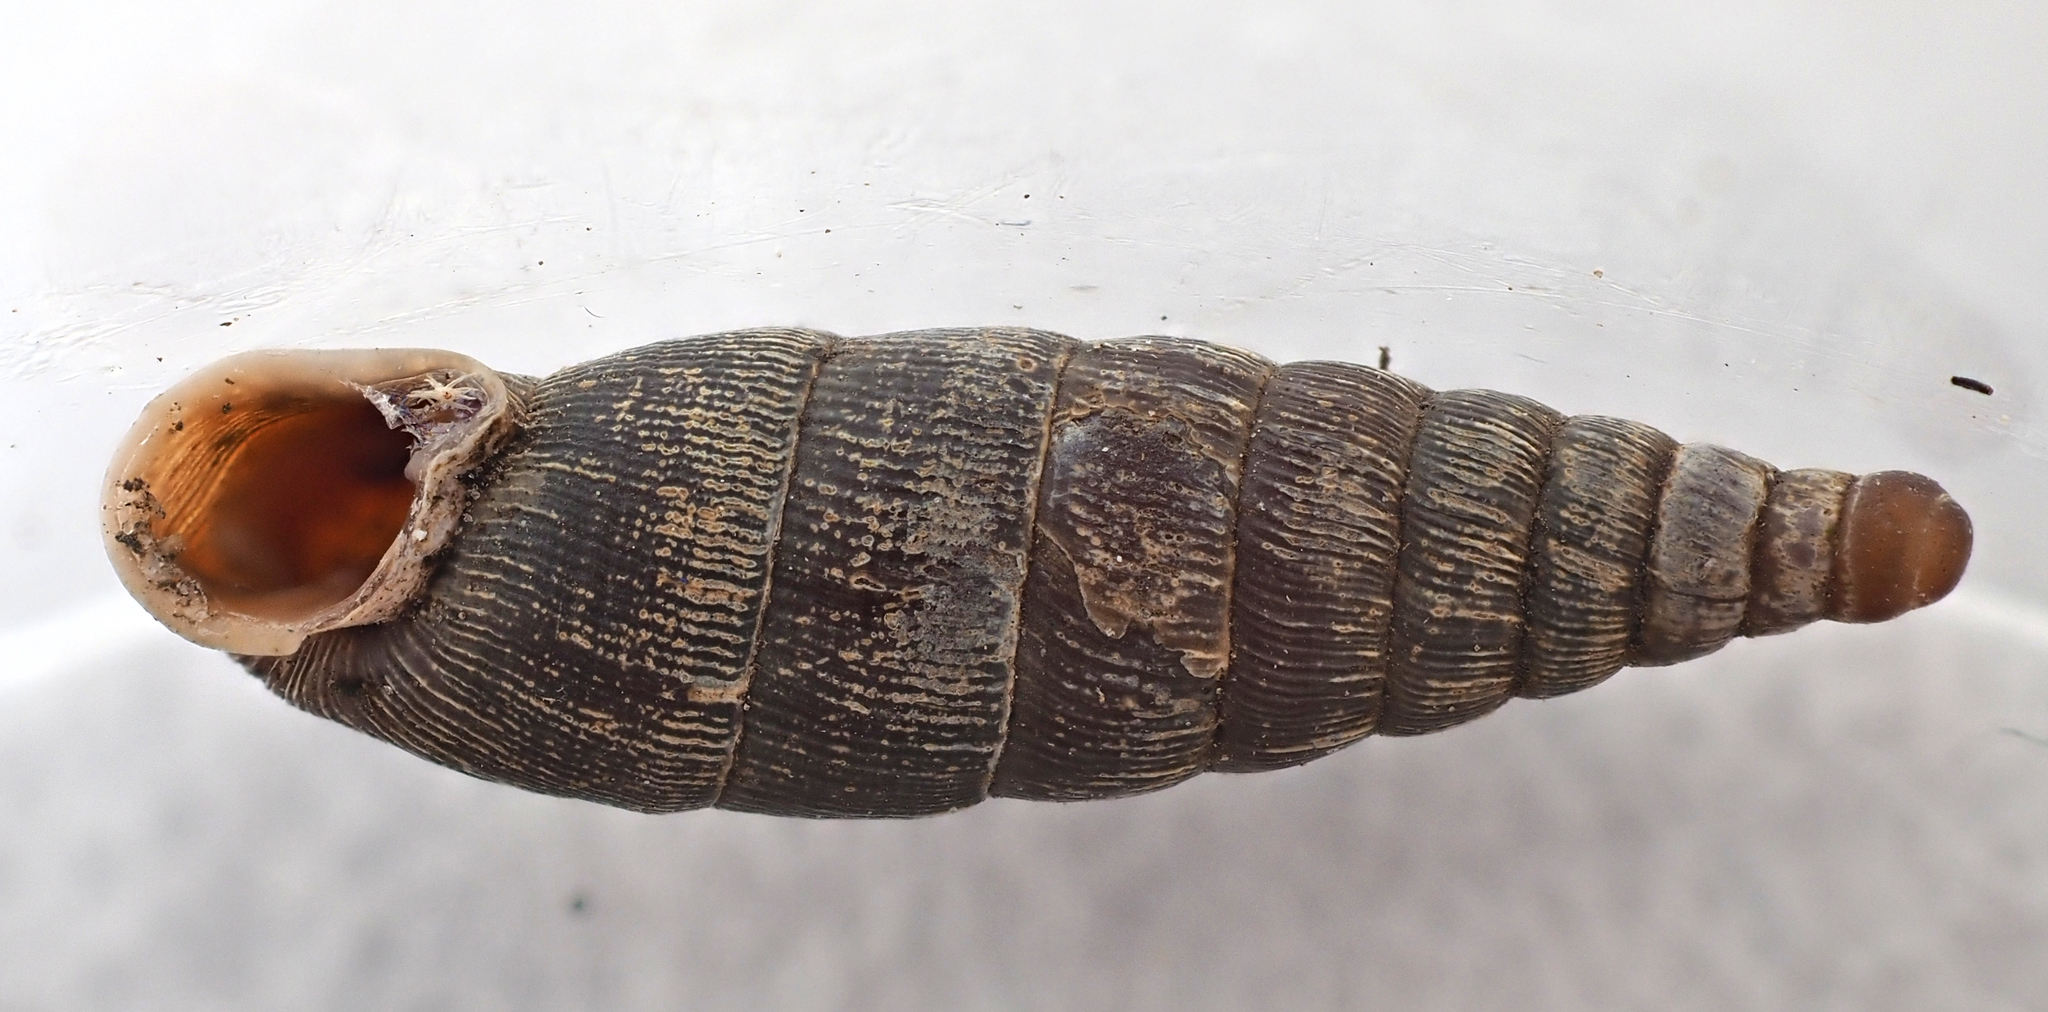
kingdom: Animalia
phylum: Mollusca
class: Gastropoda
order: Stylommatophora
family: Clausiliidae
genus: Clausilia
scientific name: Clausilia bidentata
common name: Two-toothed door snail
